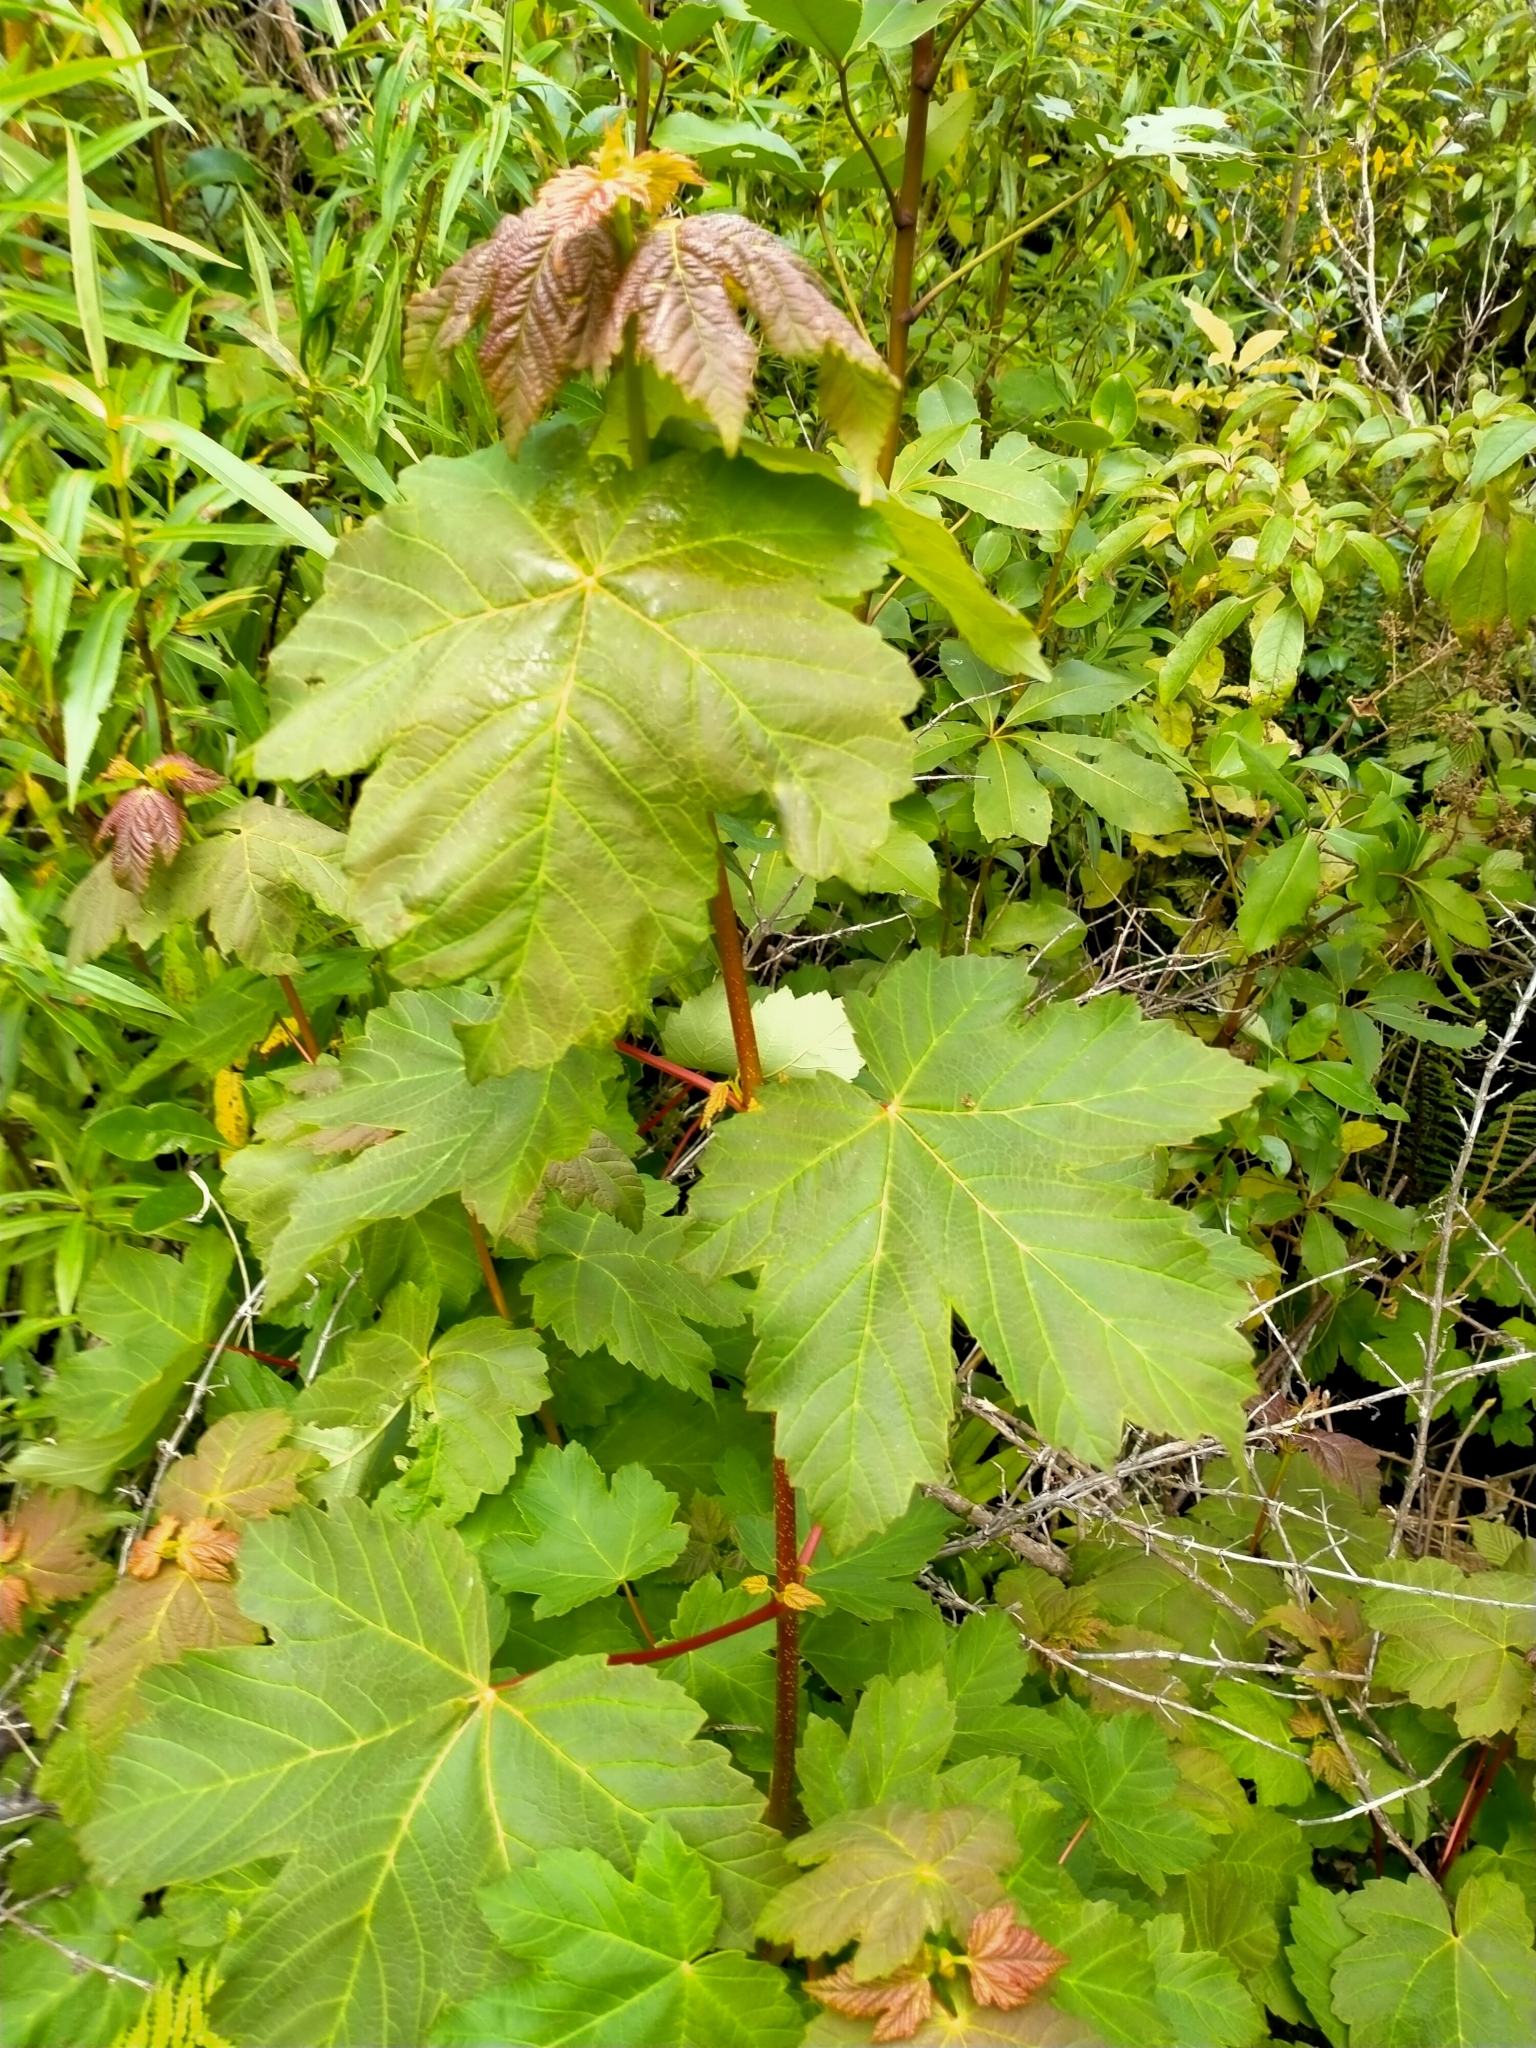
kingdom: Plantae
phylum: Tracheophyta
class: Magnoliopsida
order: Sapindales
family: Sapindaceae
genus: Acer
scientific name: Acer pseudoplatanus
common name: Sycamore
